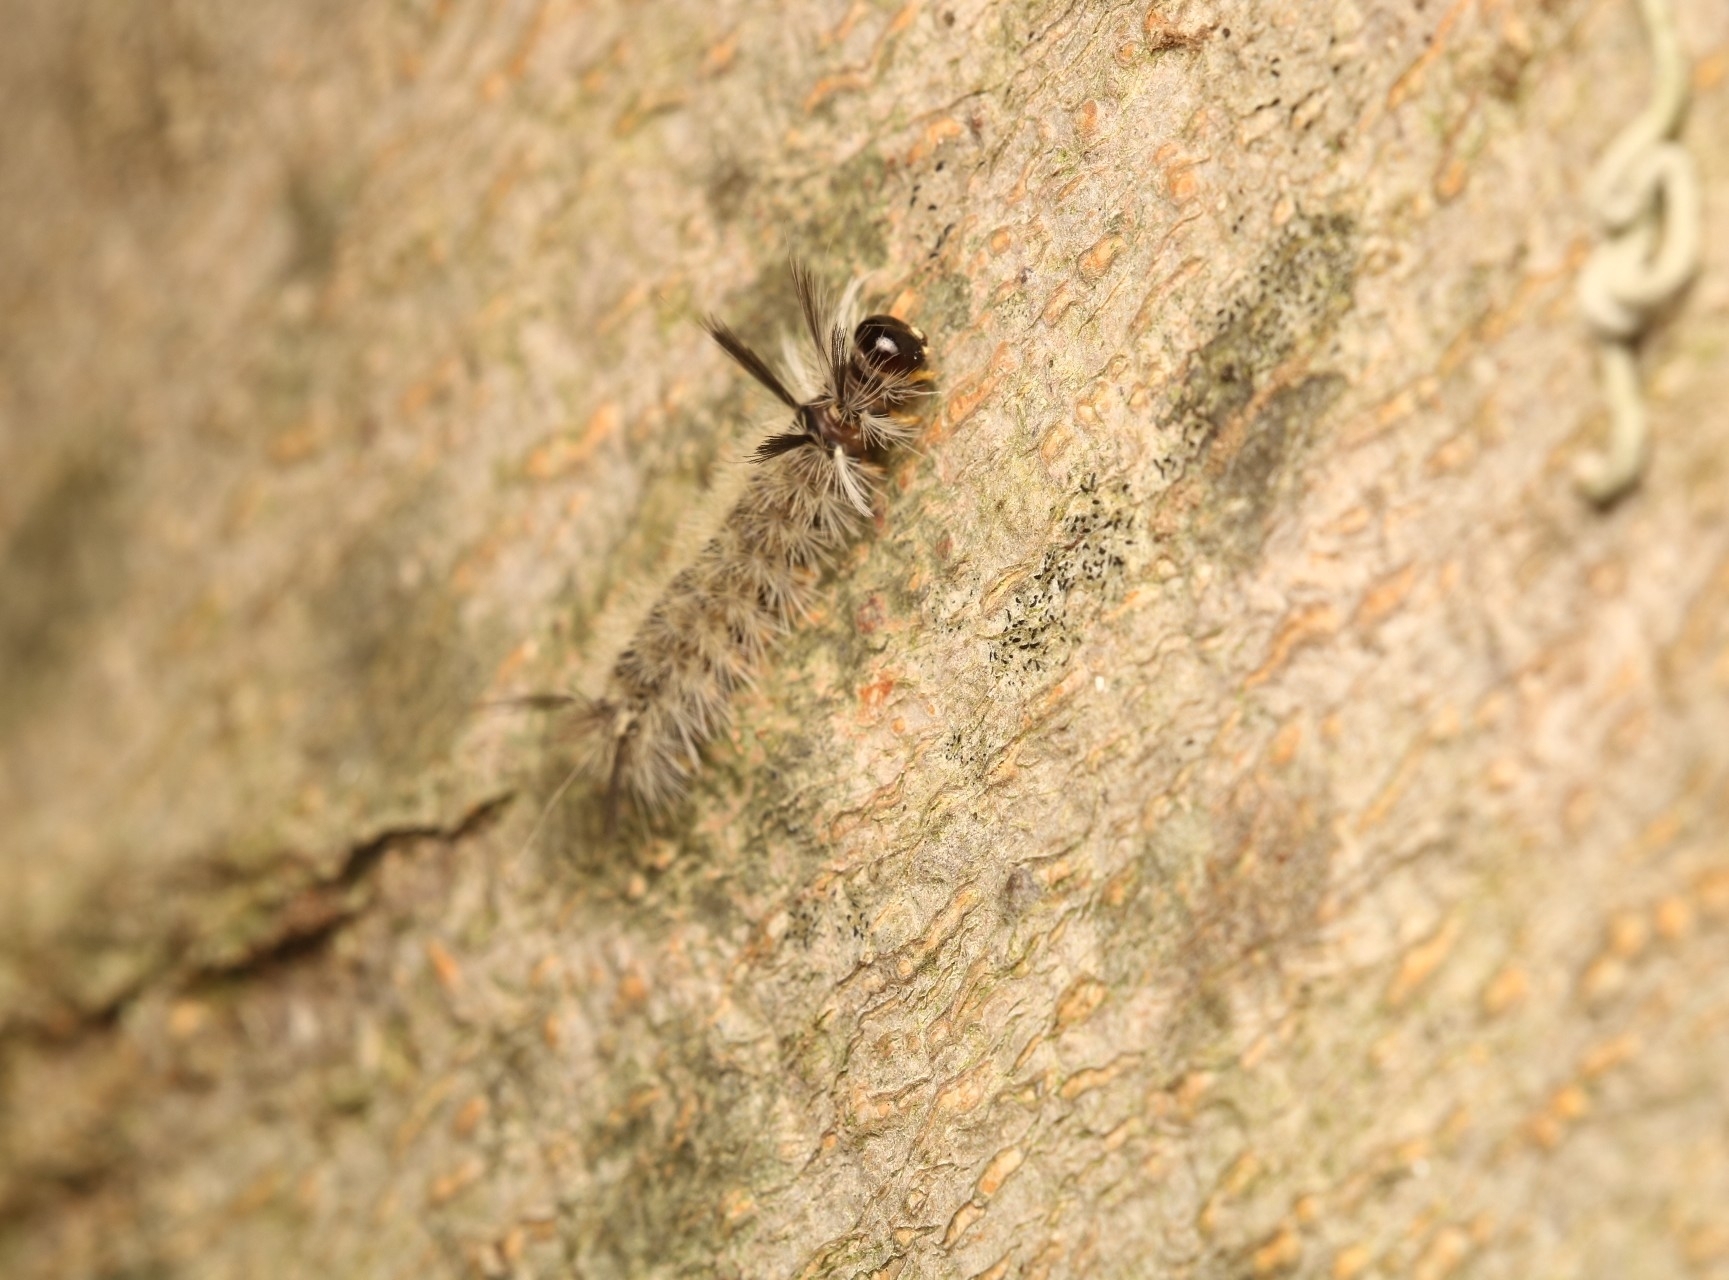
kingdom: Animalia
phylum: Arthropoda
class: Insecta
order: Lepidoptera
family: Erebidae
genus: Halysidota
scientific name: Halysidota tessellaris
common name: Banded tussock moth
